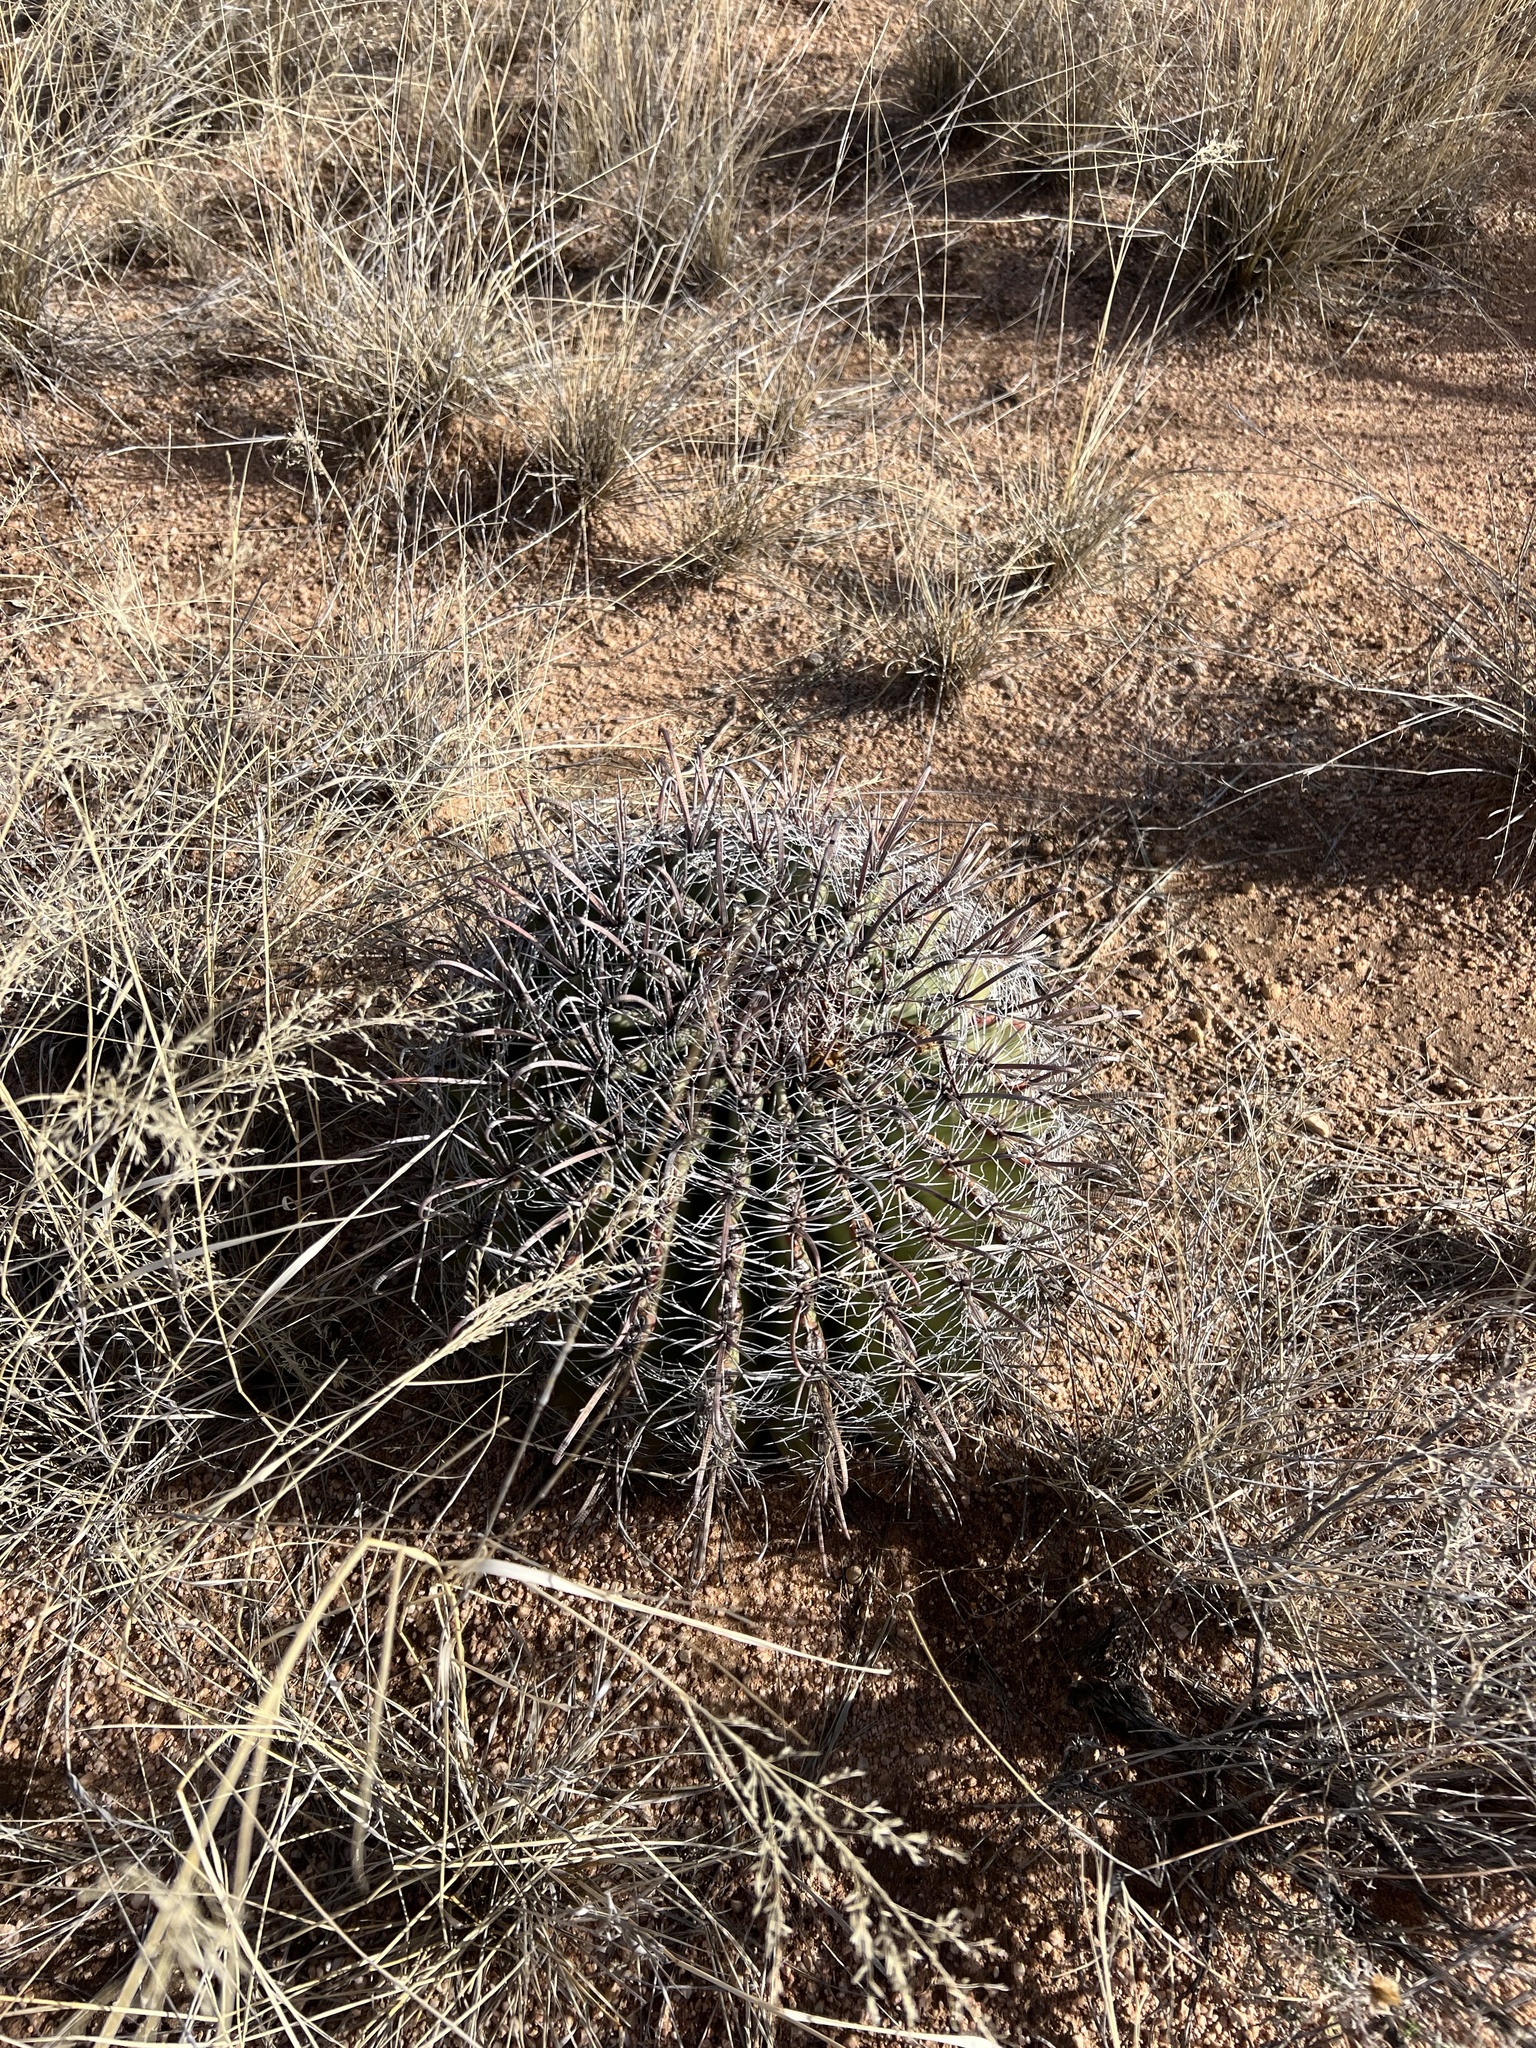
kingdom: Plantae
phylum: Tracheophyta
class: Magnoliopsida
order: Caryophyllales
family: Cactaceae
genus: Ferocactus
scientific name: Ferocactus wislizeni
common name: Candy barrel cactus
